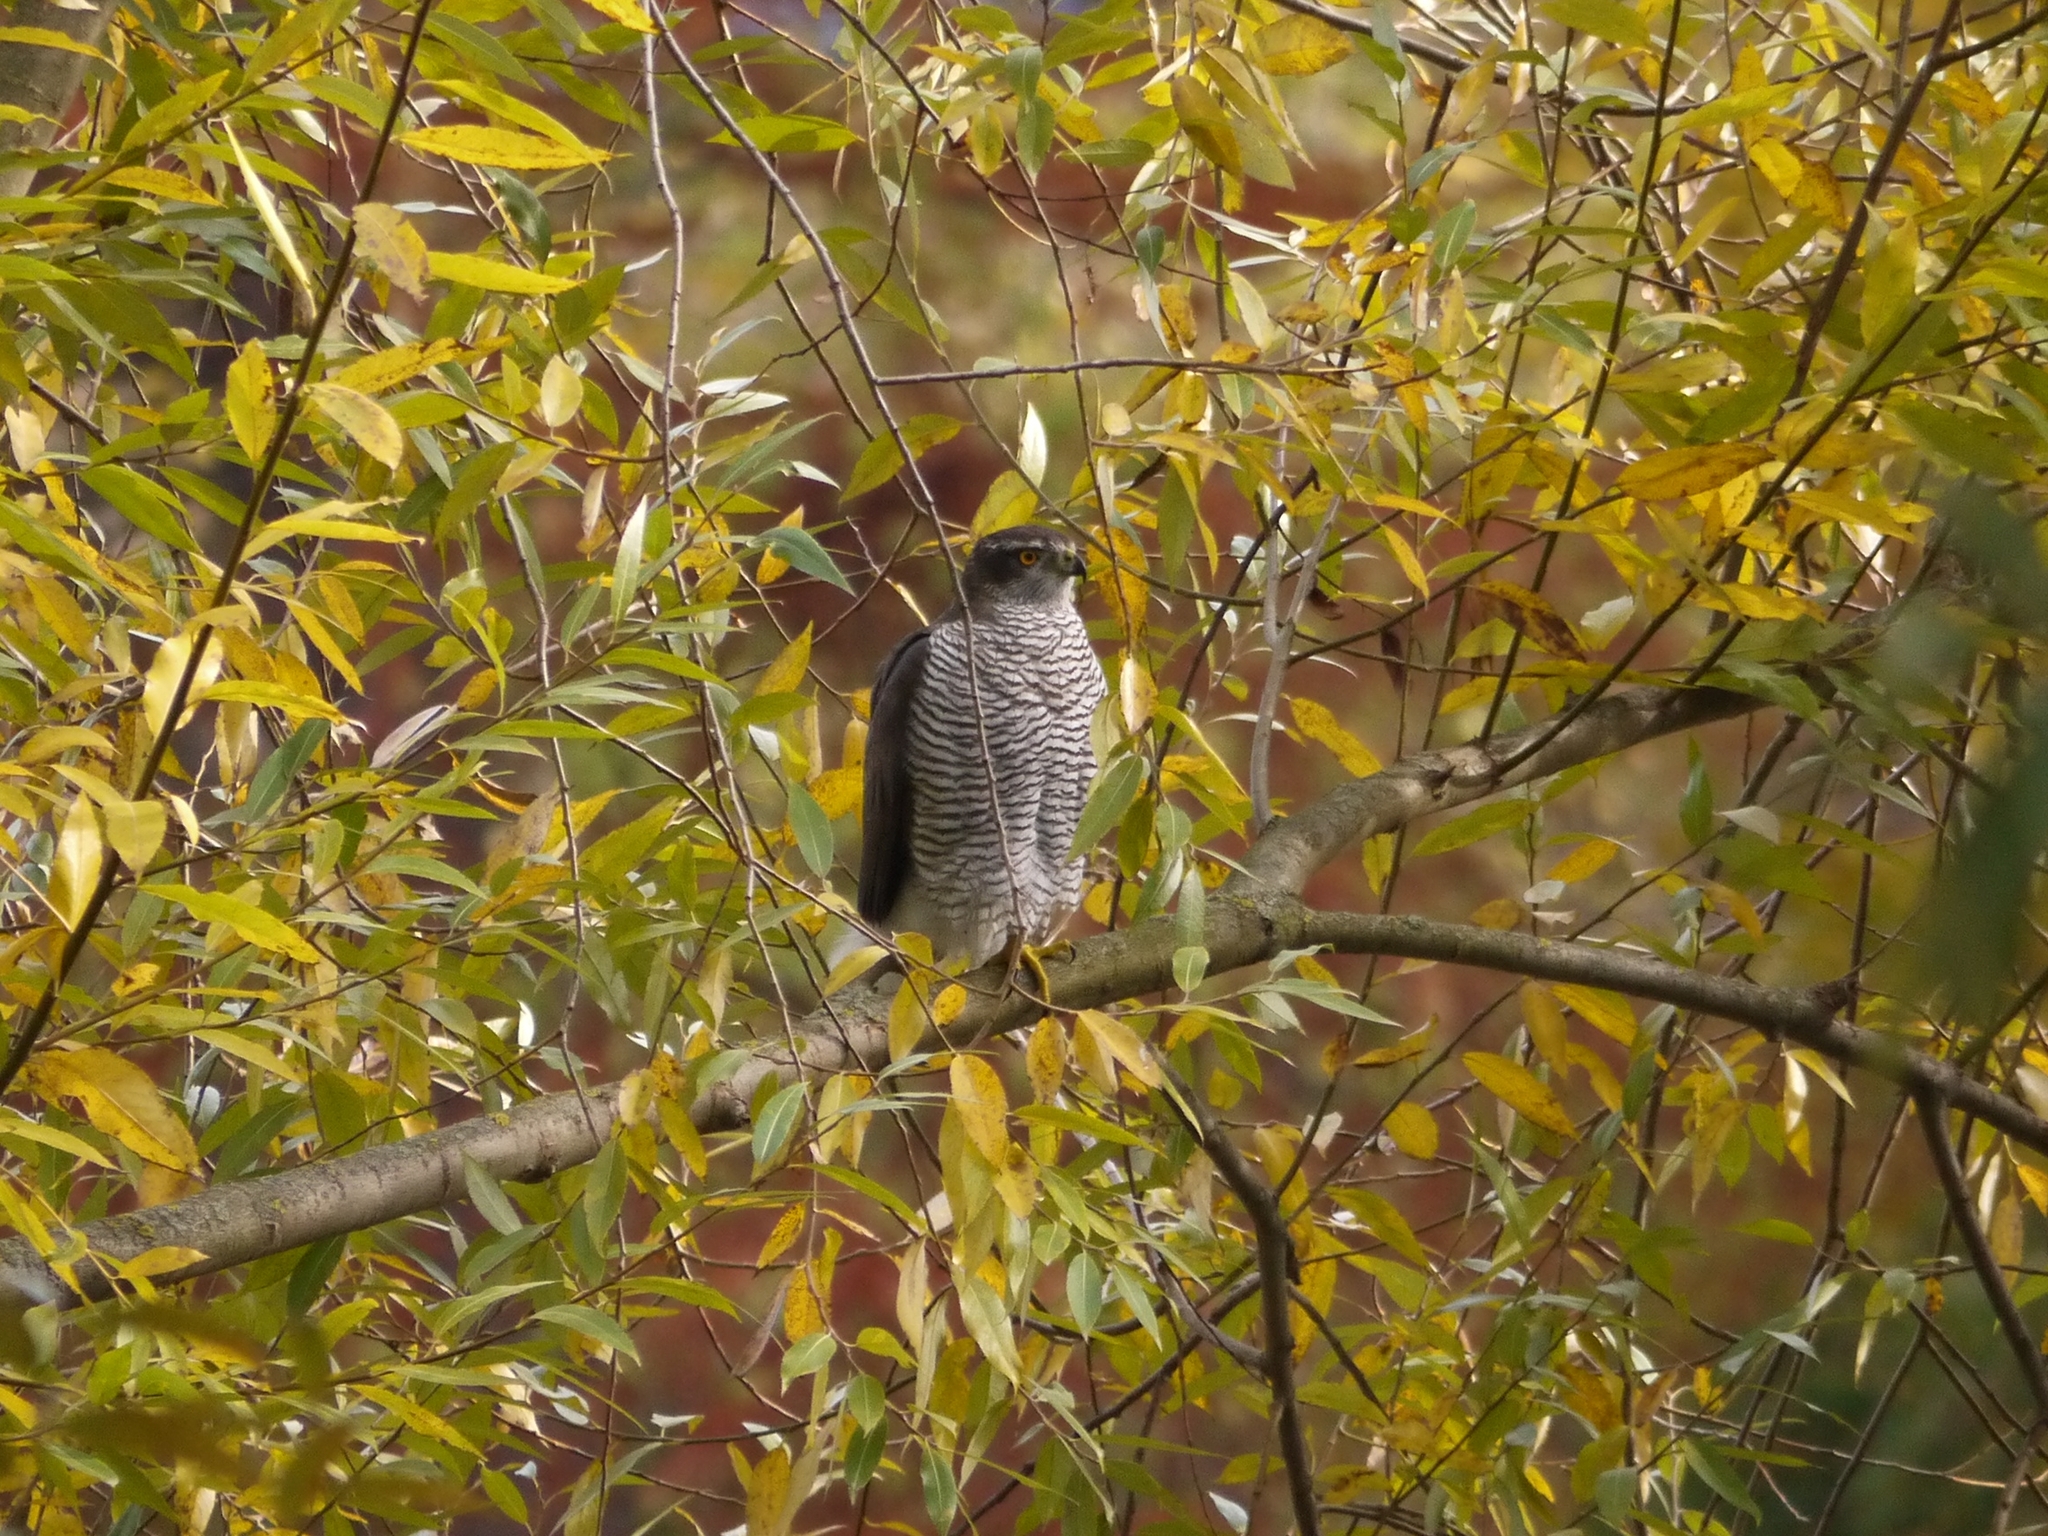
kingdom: Animalia
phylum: Chordata
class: Aves
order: Accipitriformes
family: Accipitridae
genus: Accipiter
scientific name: Accipiter gentilis
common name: Northern goshawk
